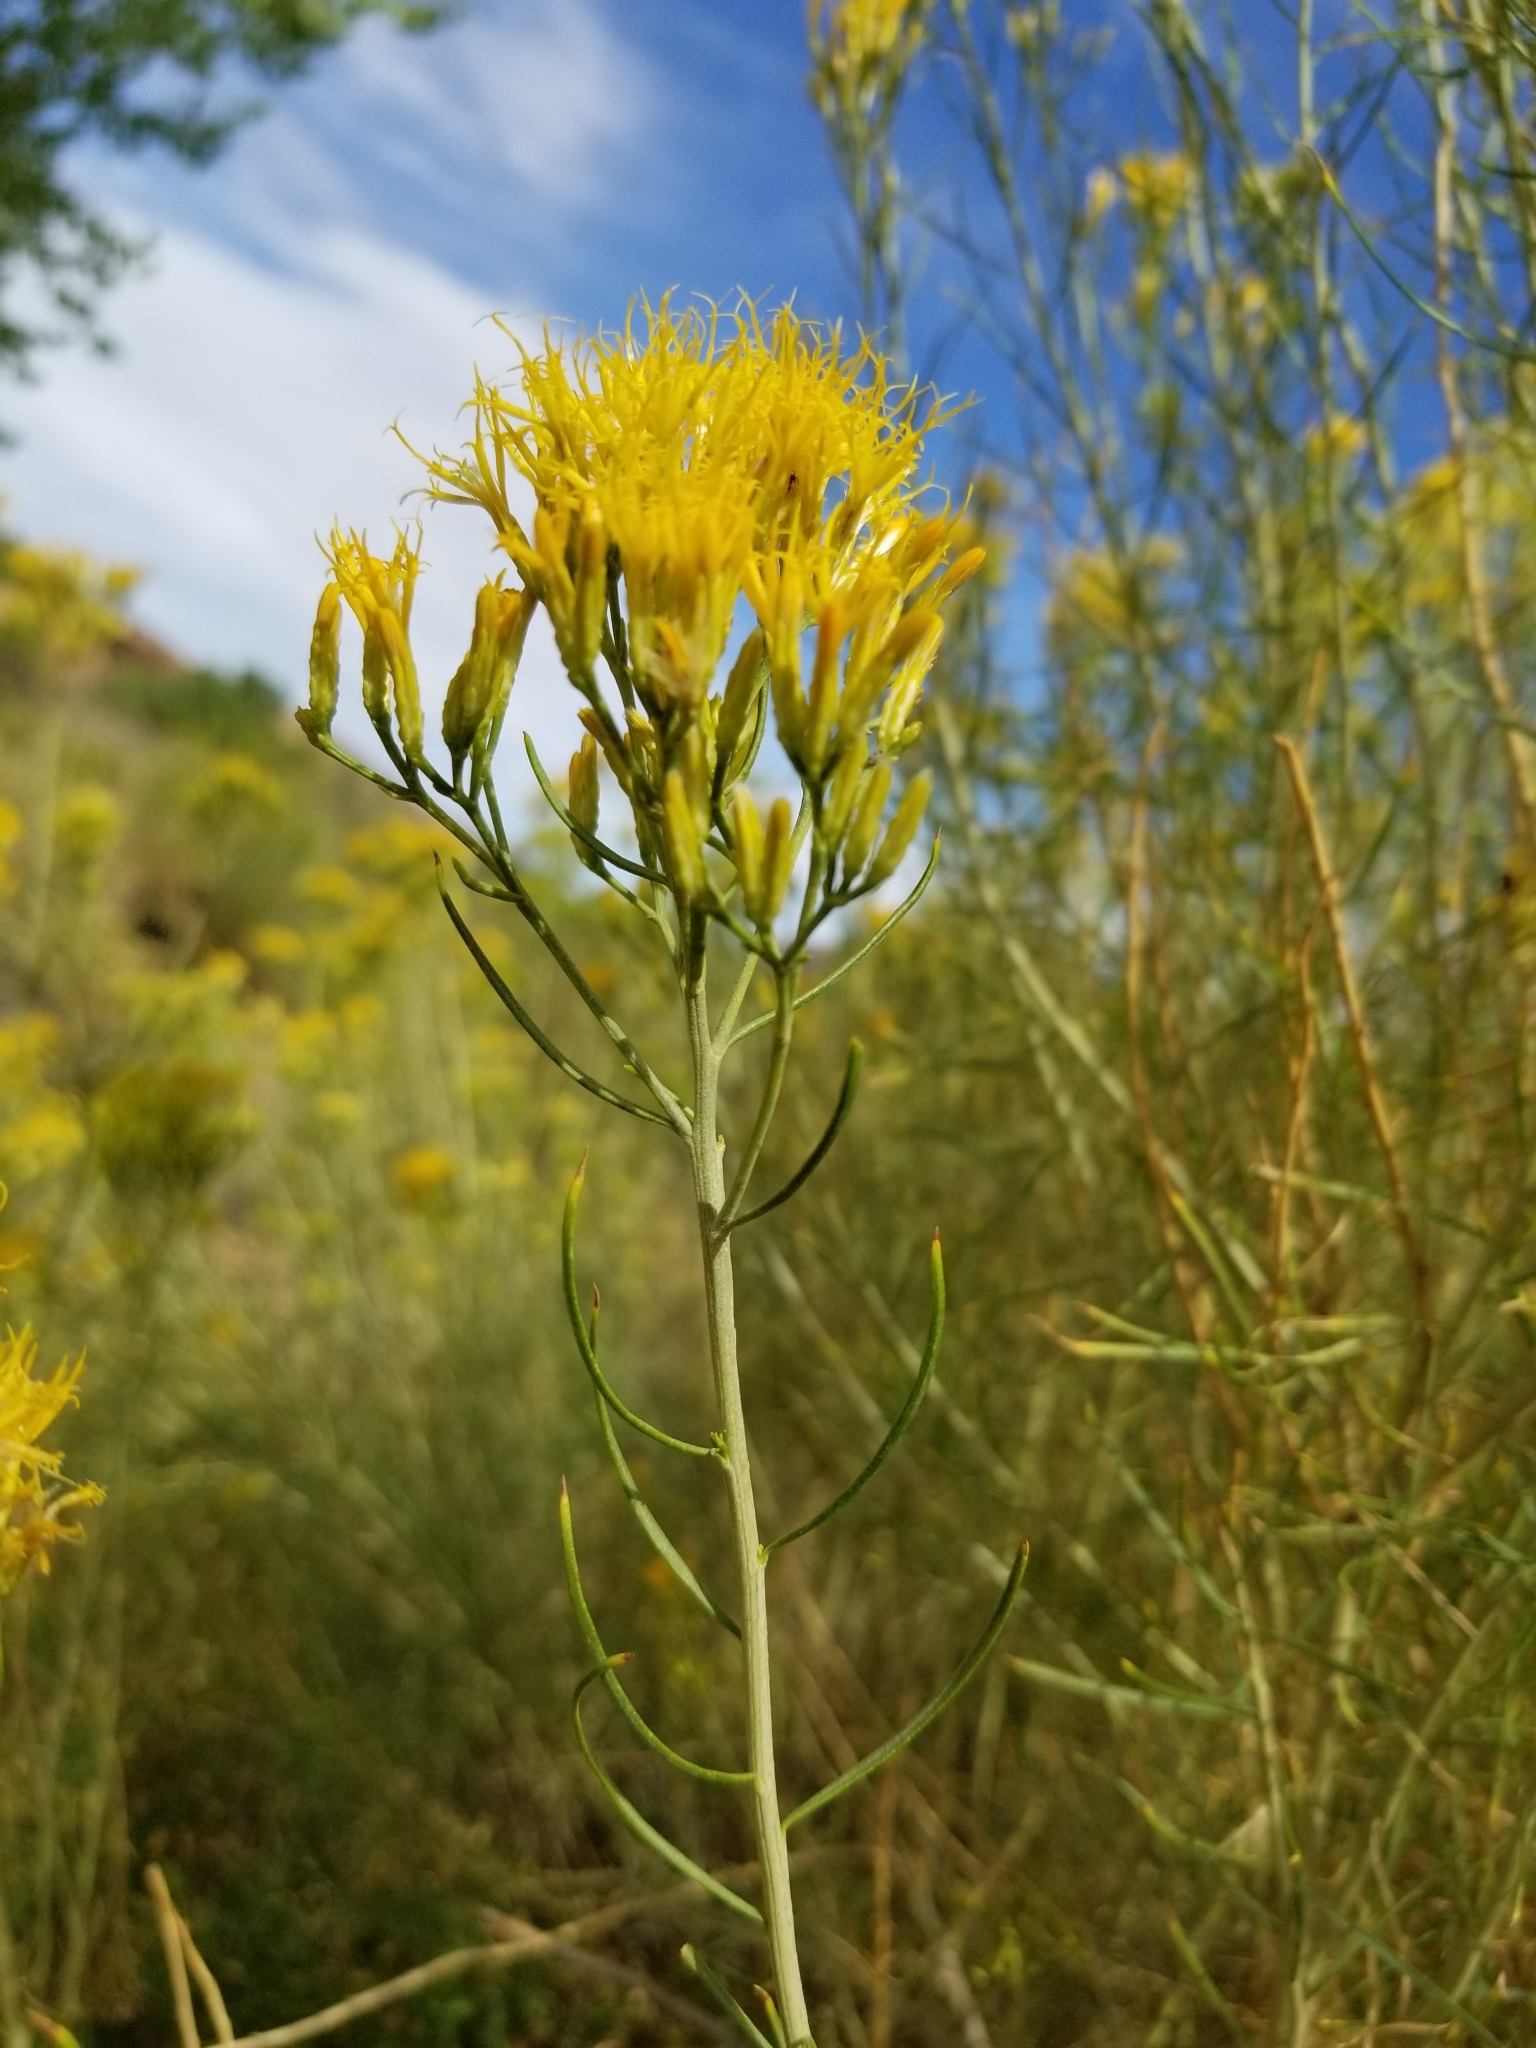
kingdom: Plantae
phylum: Tracheophyta
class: Magnoliopsida
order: Asterales
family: Asteraceae
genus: Ericameria
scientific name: Ericameria nauseosa
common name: Rubber rabbitbrush
